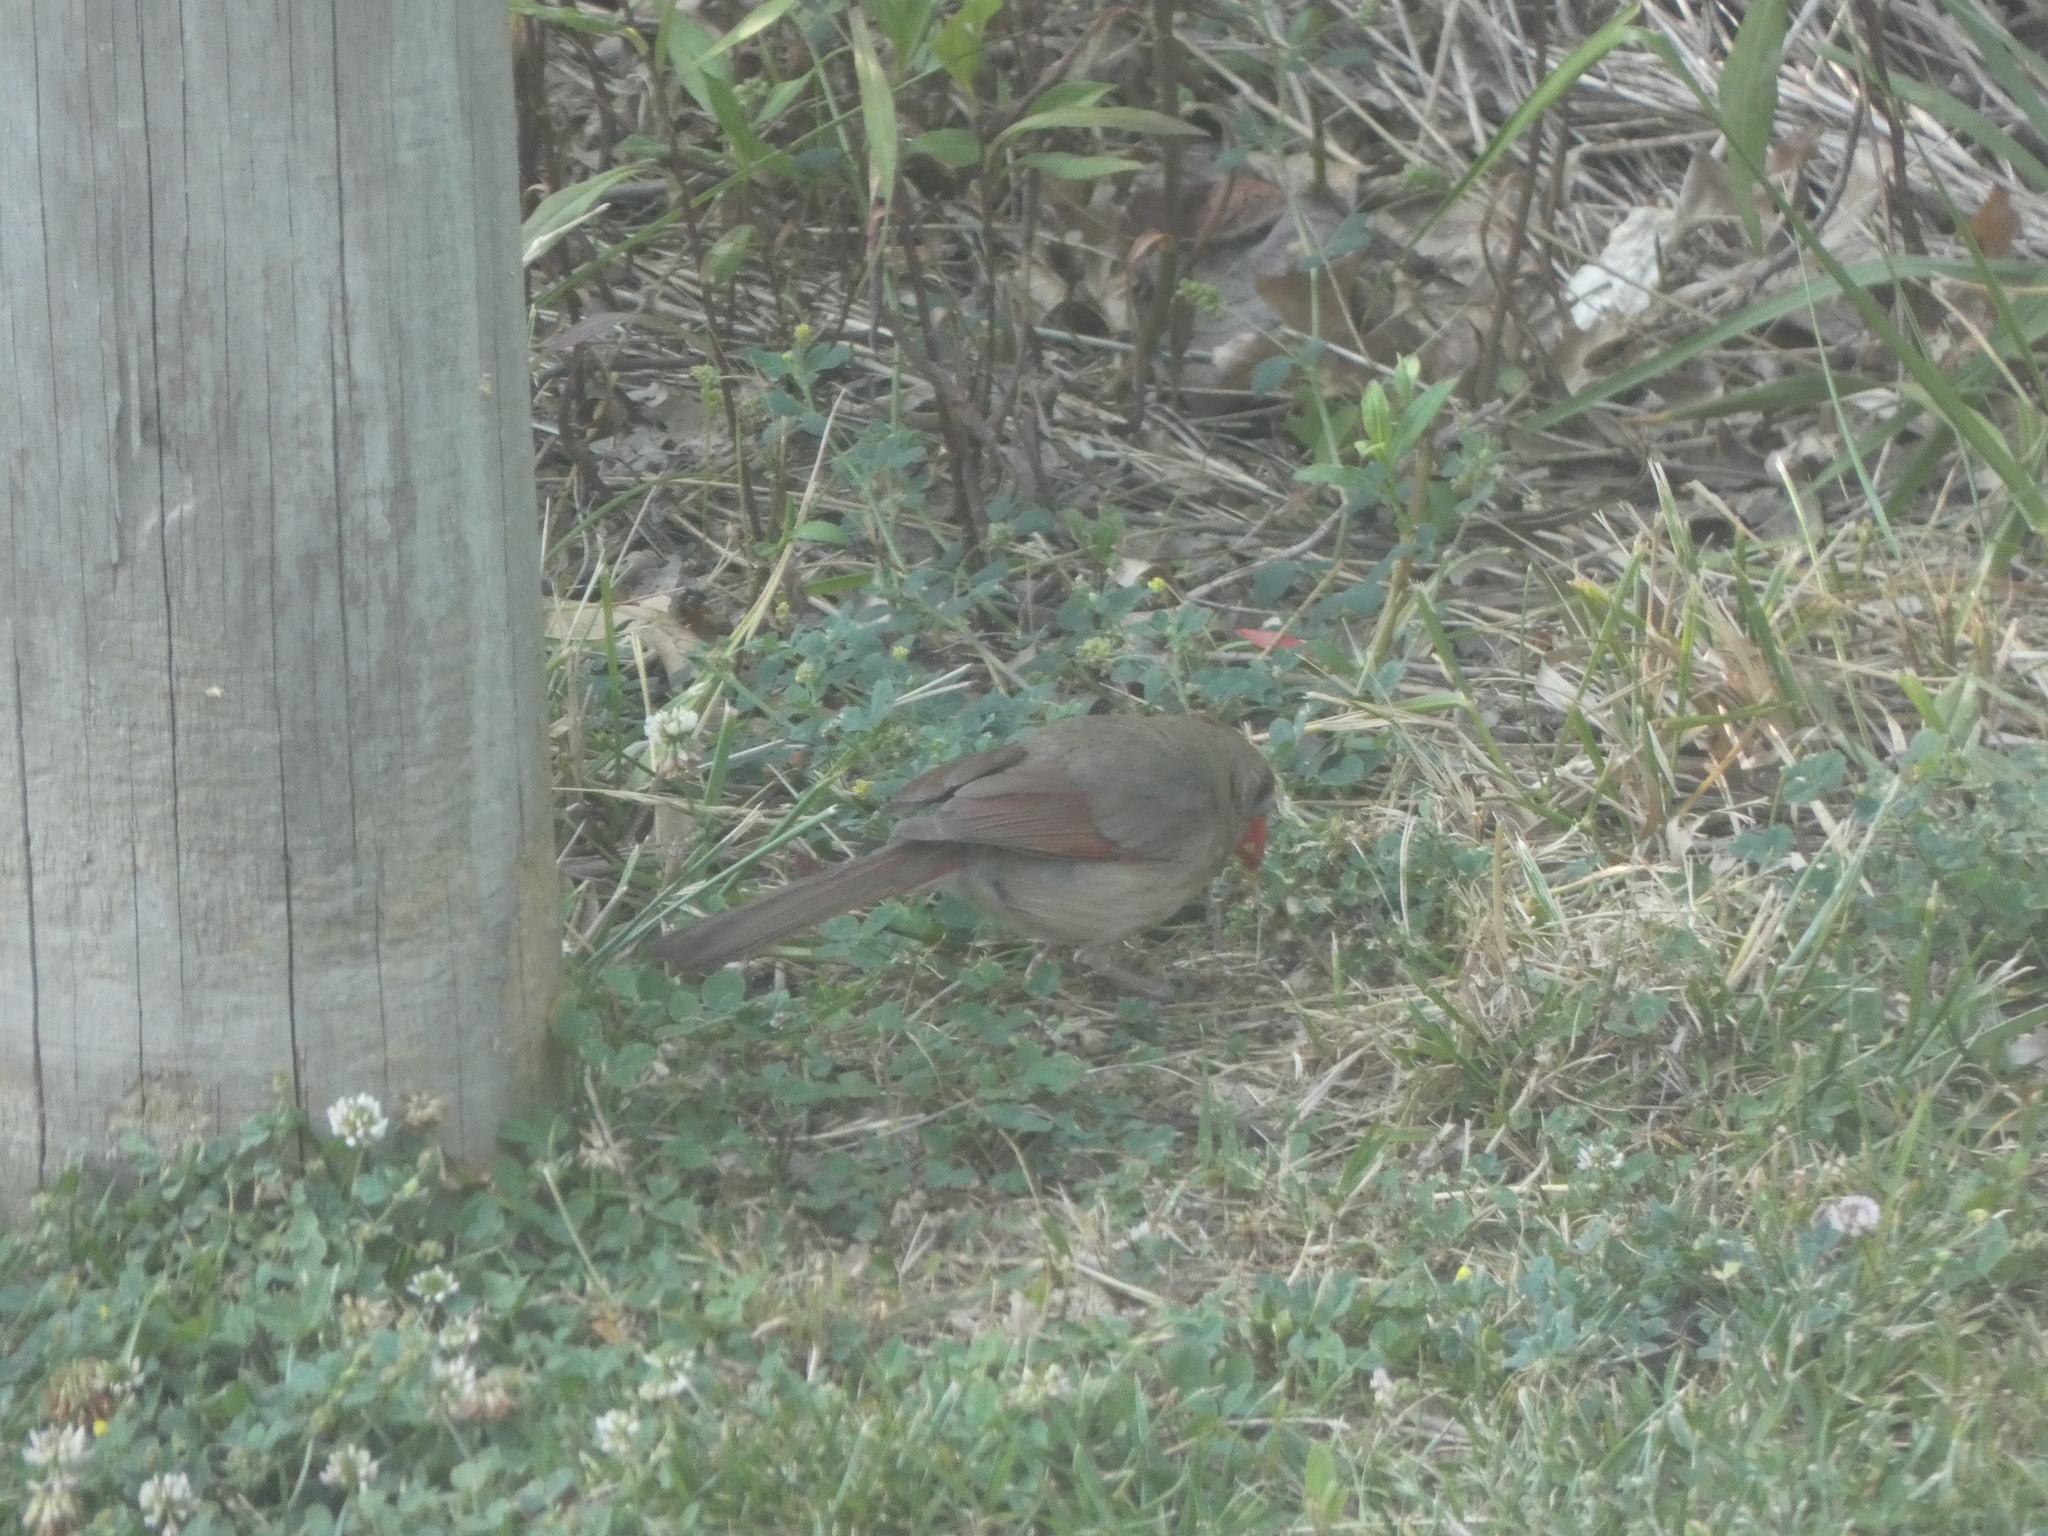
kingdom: Animalia
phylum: Chordata
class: Aves
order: Passeriformes
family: Cardinalidae
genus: Cardinalis
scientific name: Cardinalis cardinalis
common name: Northern cardinal
